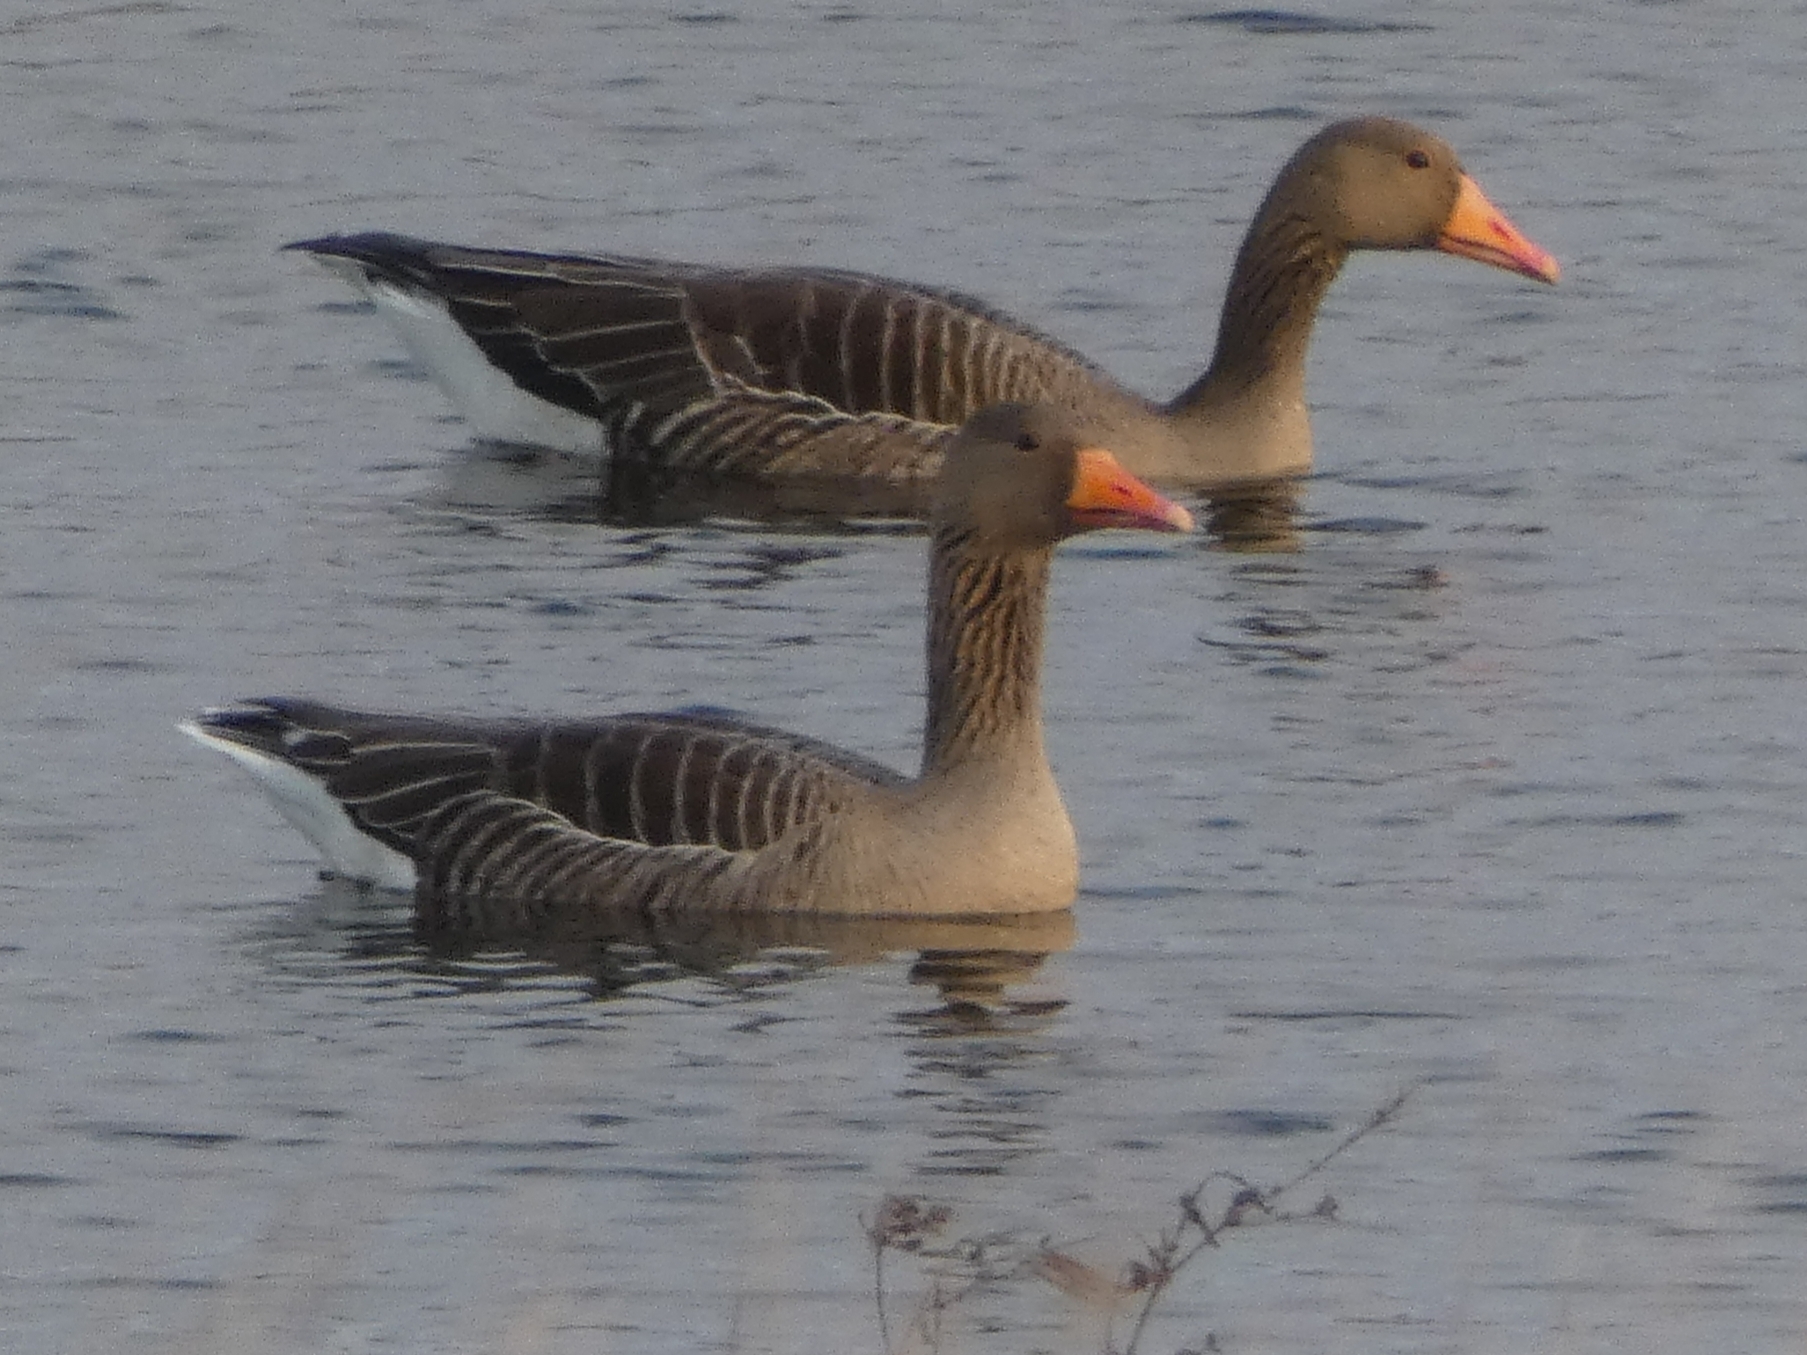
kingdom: Animalia
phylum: Chordata
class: Aves
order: Anseriformes
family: Anatidae
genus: Anser
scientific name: Anser anser
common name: Greylag goose
